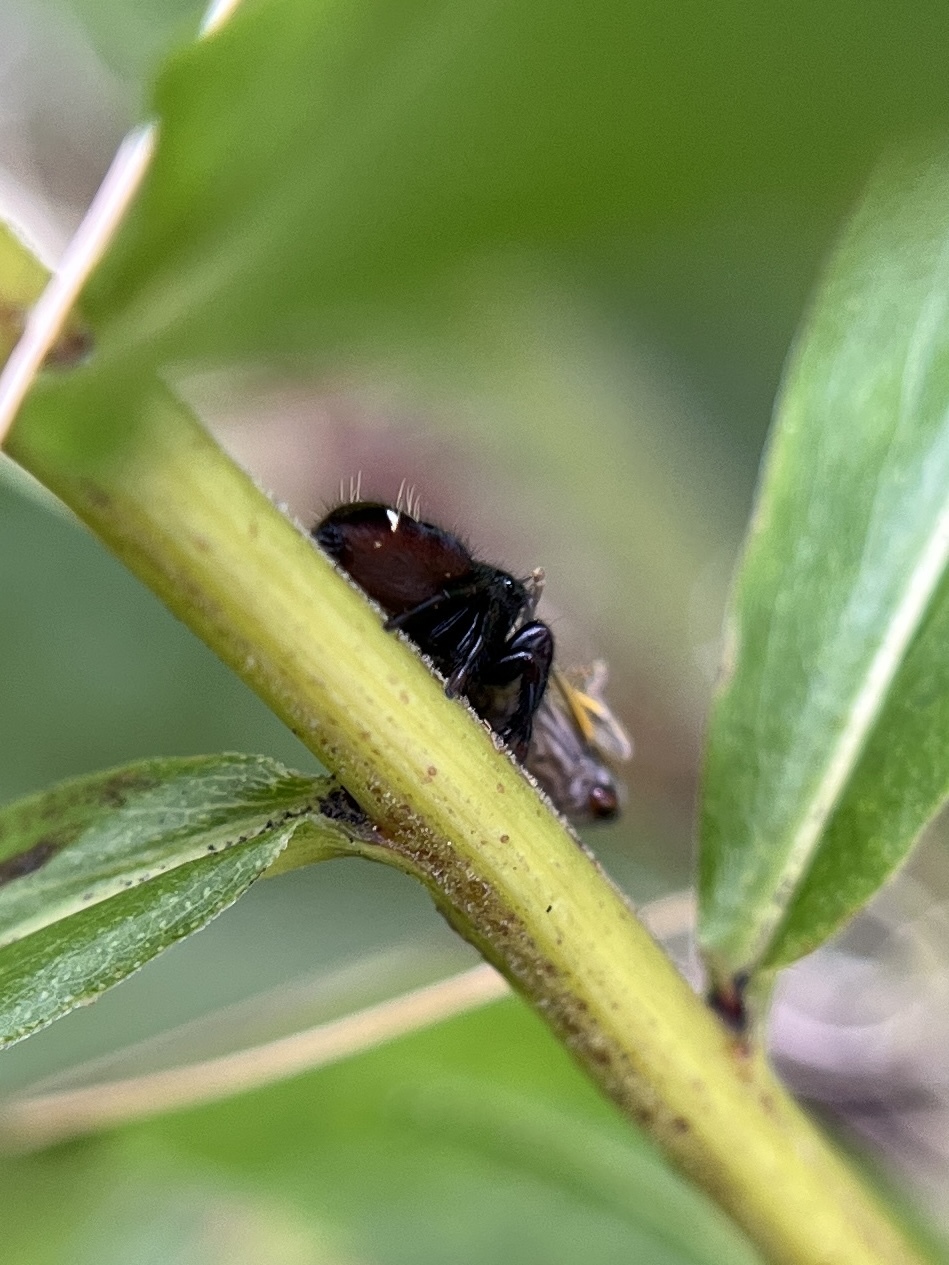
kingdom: Animalia
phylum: Arthropoda
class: Arachnida
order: Araneae
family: Salticidae
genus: Phidippus
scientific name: Phidippus audax
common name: Bold jumper
